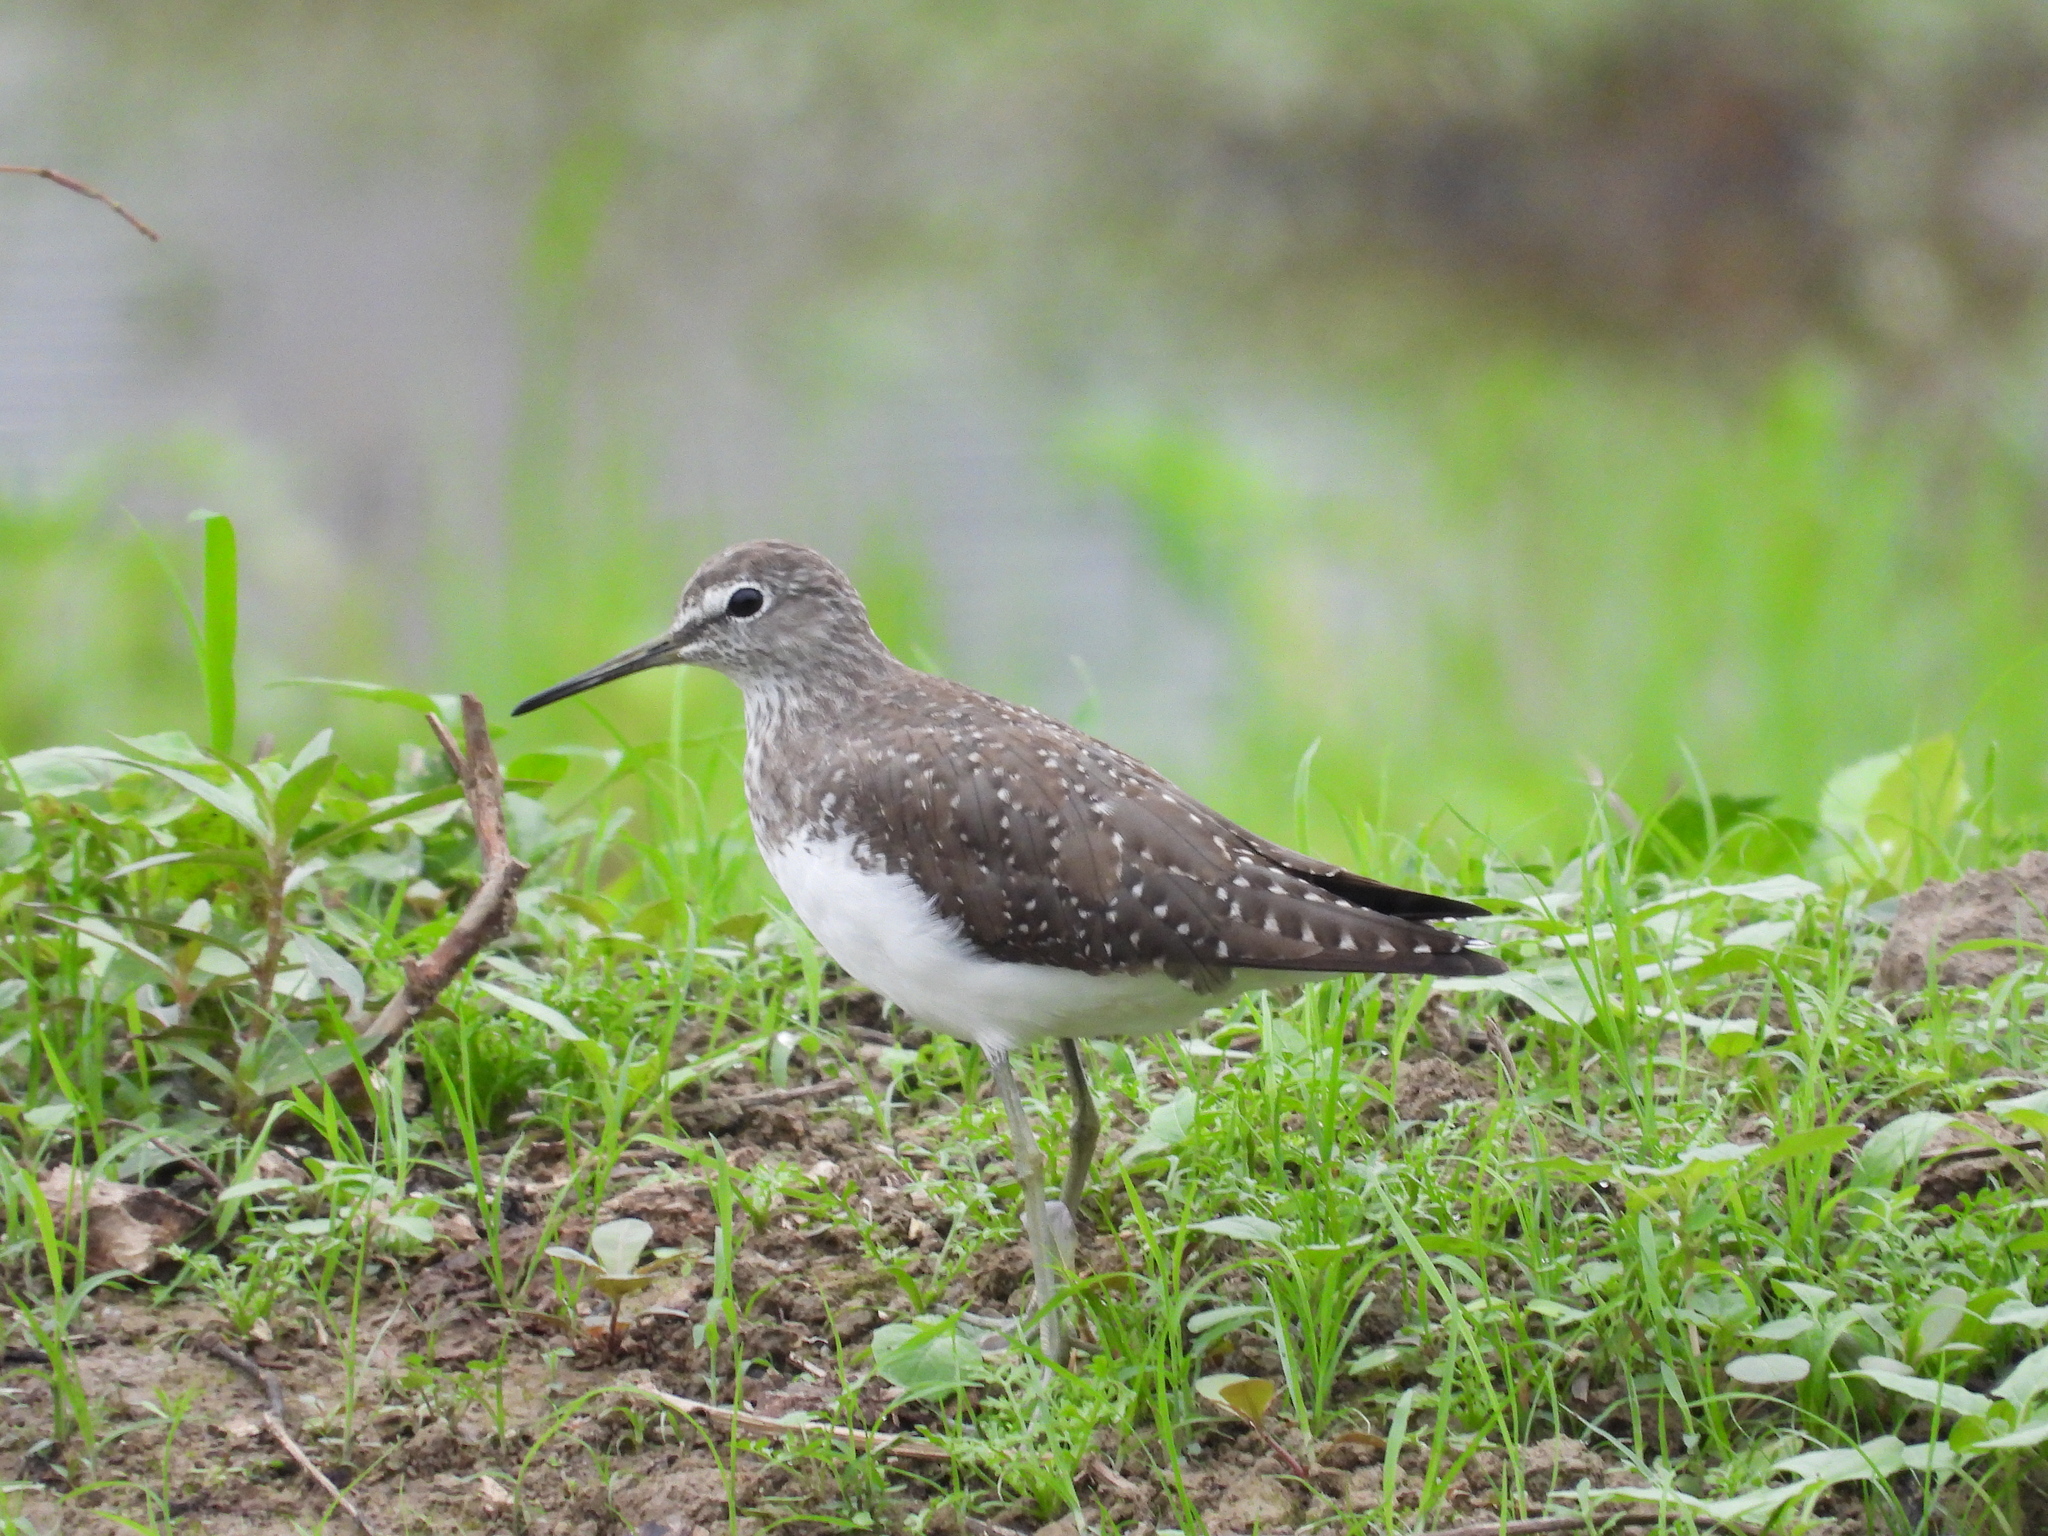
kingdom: Animalia
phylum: Chordata
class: Aves
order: Charadriiformes
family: Scolopacidae
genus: Tringa
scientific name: Tringa ochropus
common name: Green sandpiper
